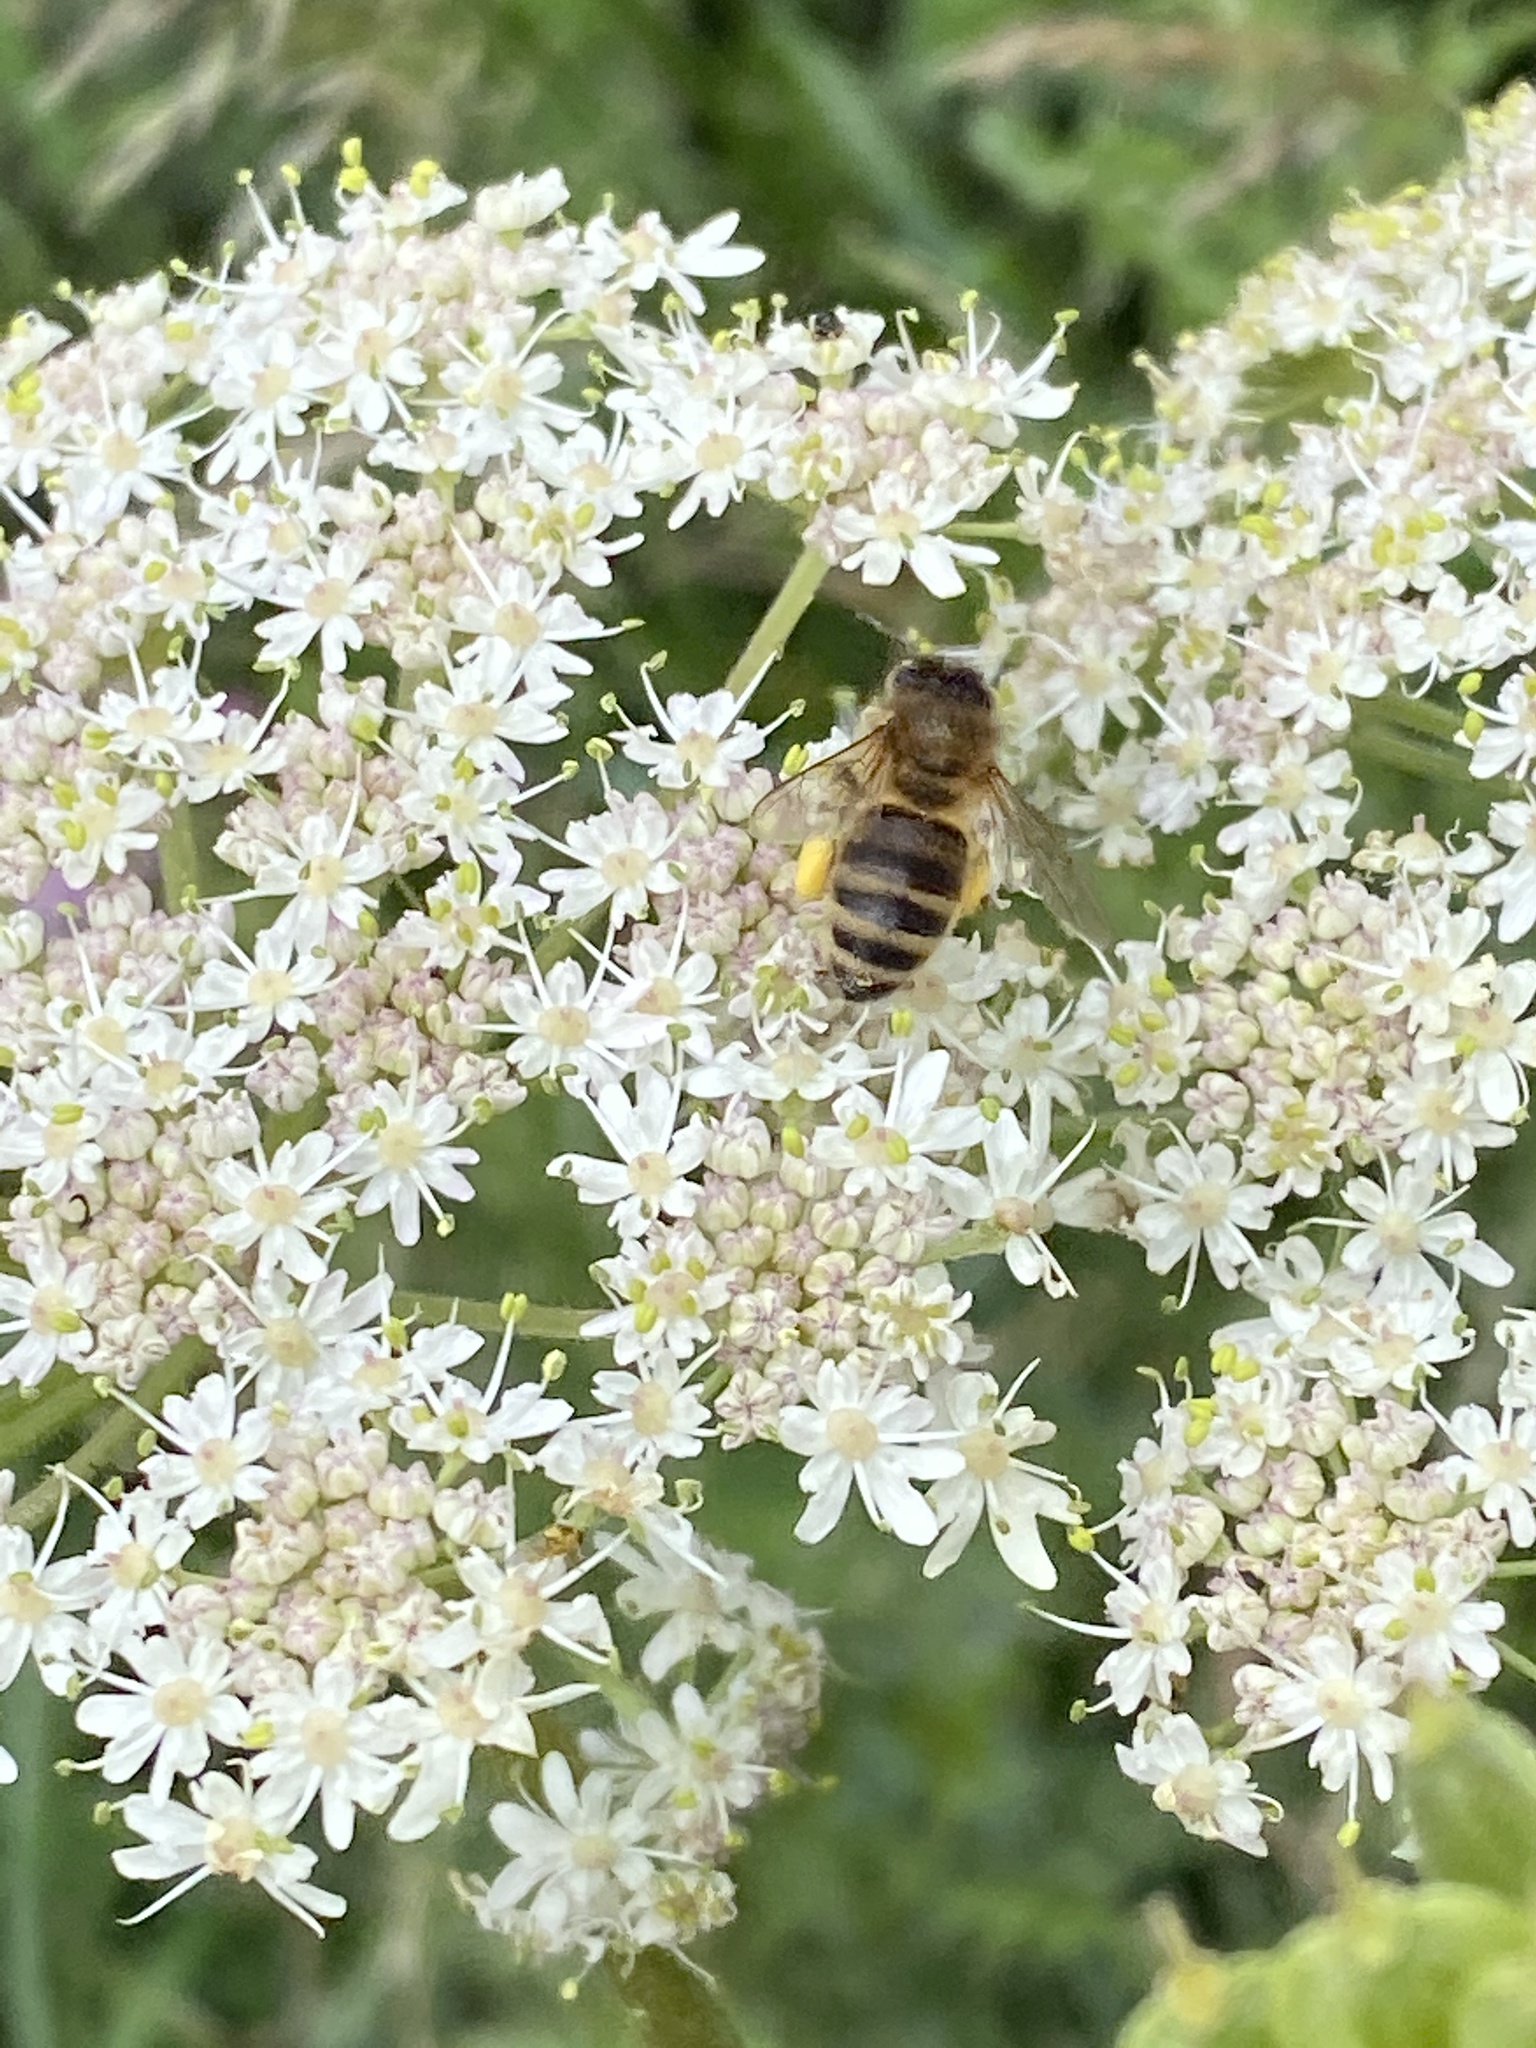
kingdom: Animalia
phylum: Arthropoda
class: Insecta
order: Hymenoptera
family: Apidae
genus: Apis
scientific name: Apis mellifera
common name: Honey bee
